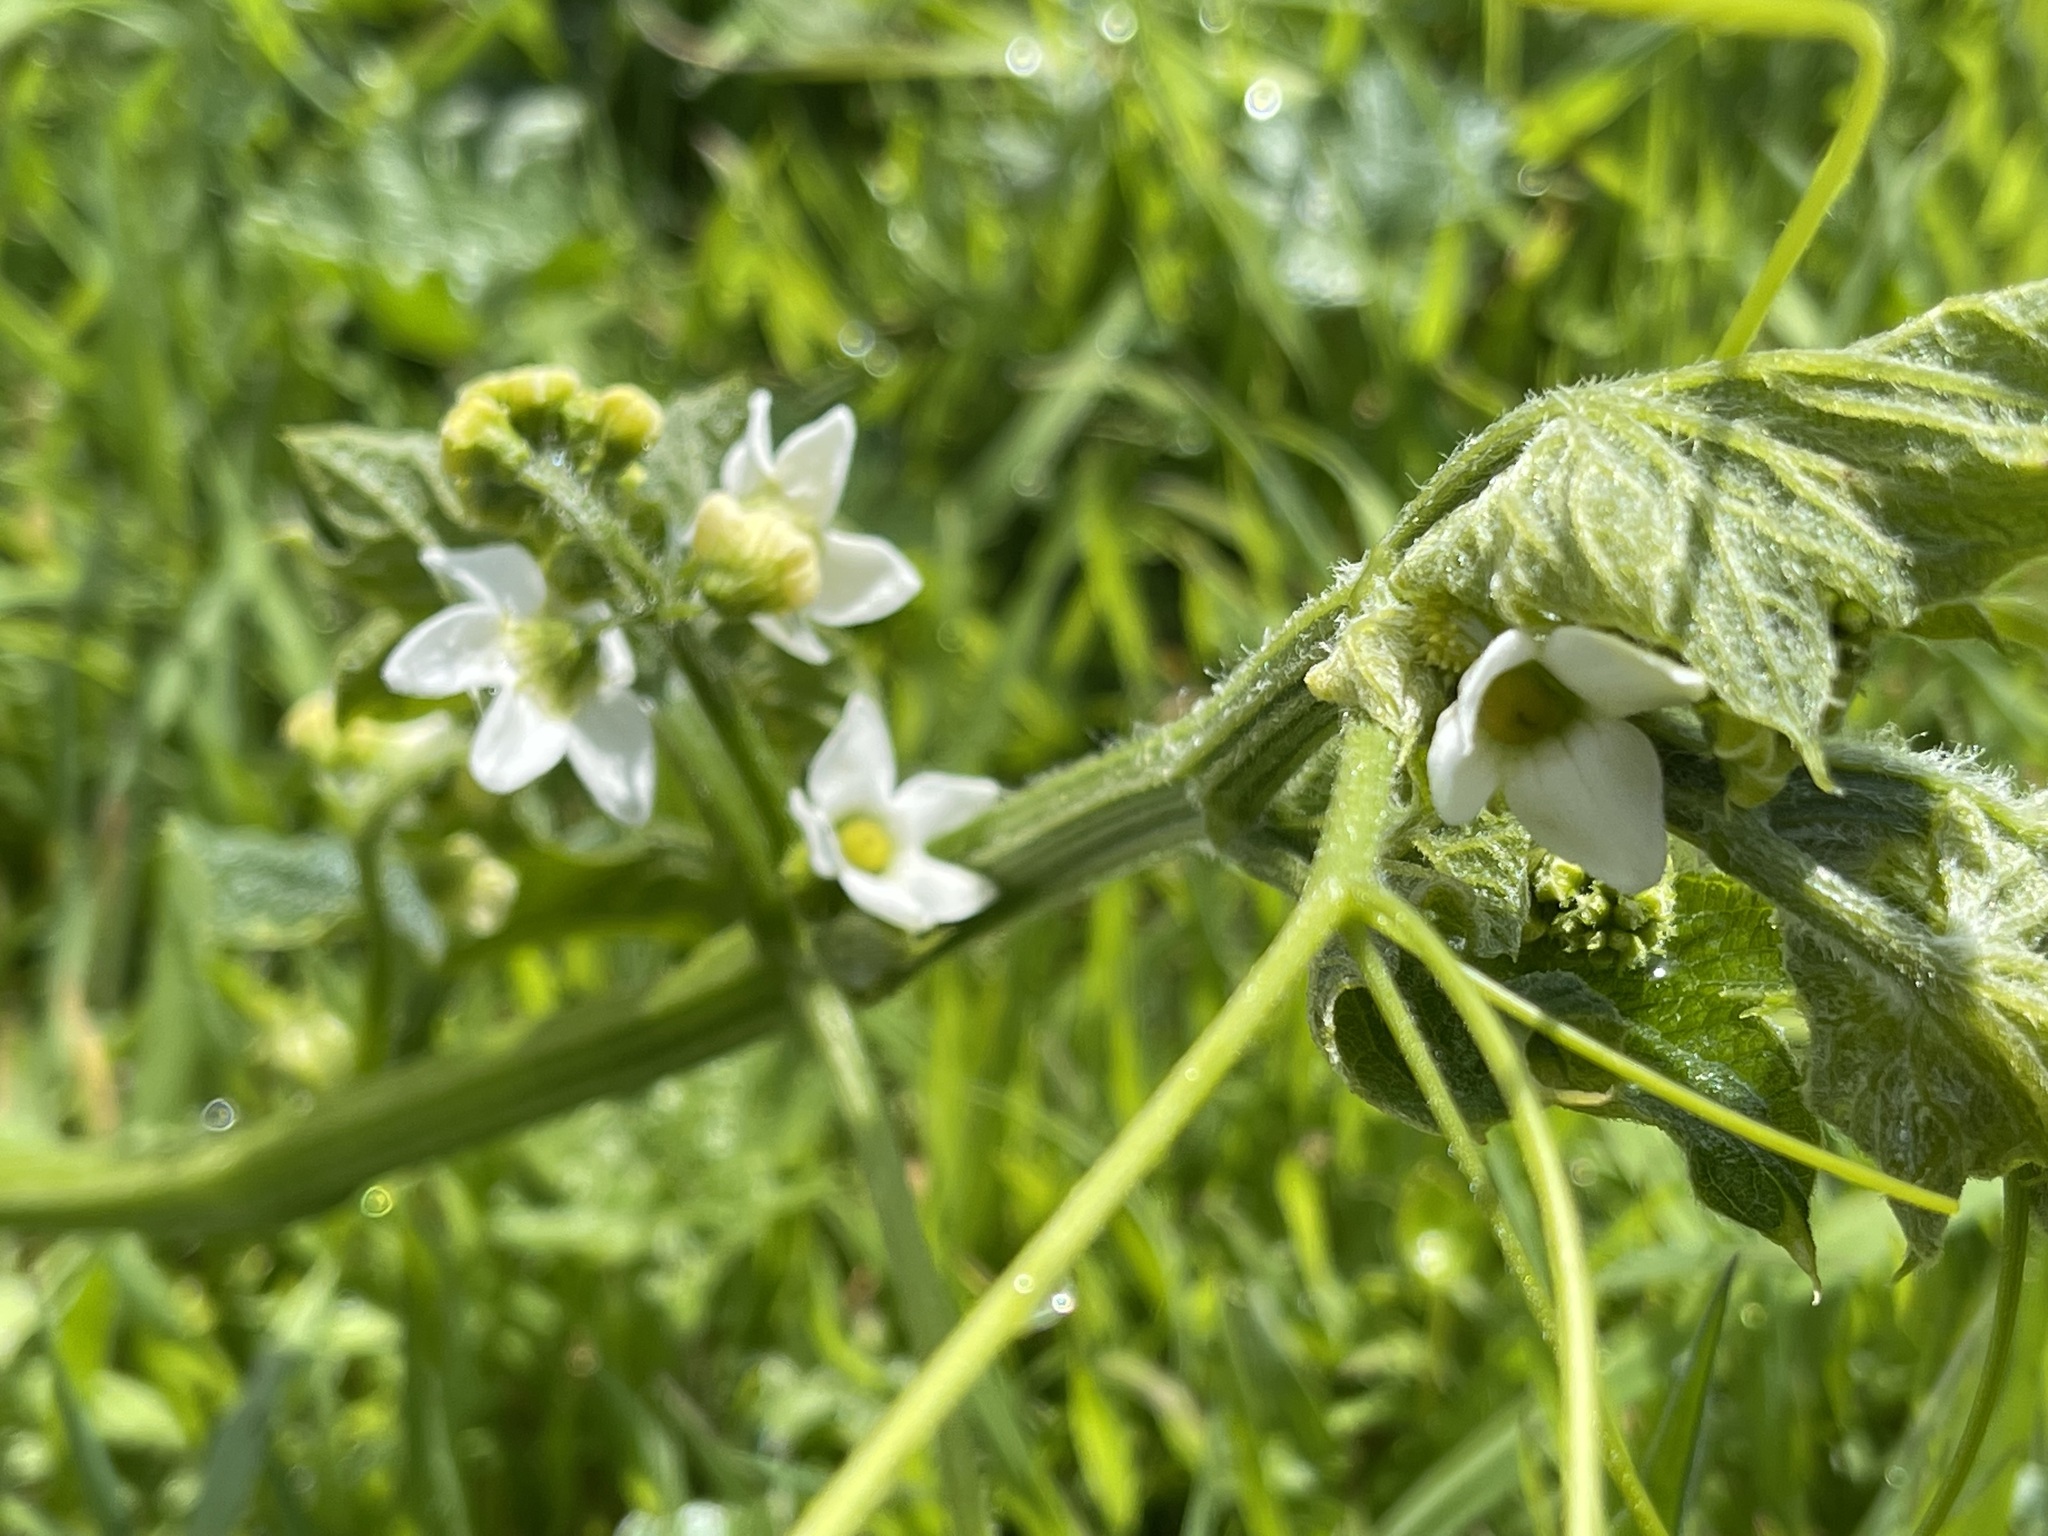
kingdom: Plantae
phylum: Tracheophyta
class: Magnoliopsida
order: Cucurbitales
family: Cucurbitaceae
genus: Marah
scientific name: Marah oregana
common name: Coastal manroot
